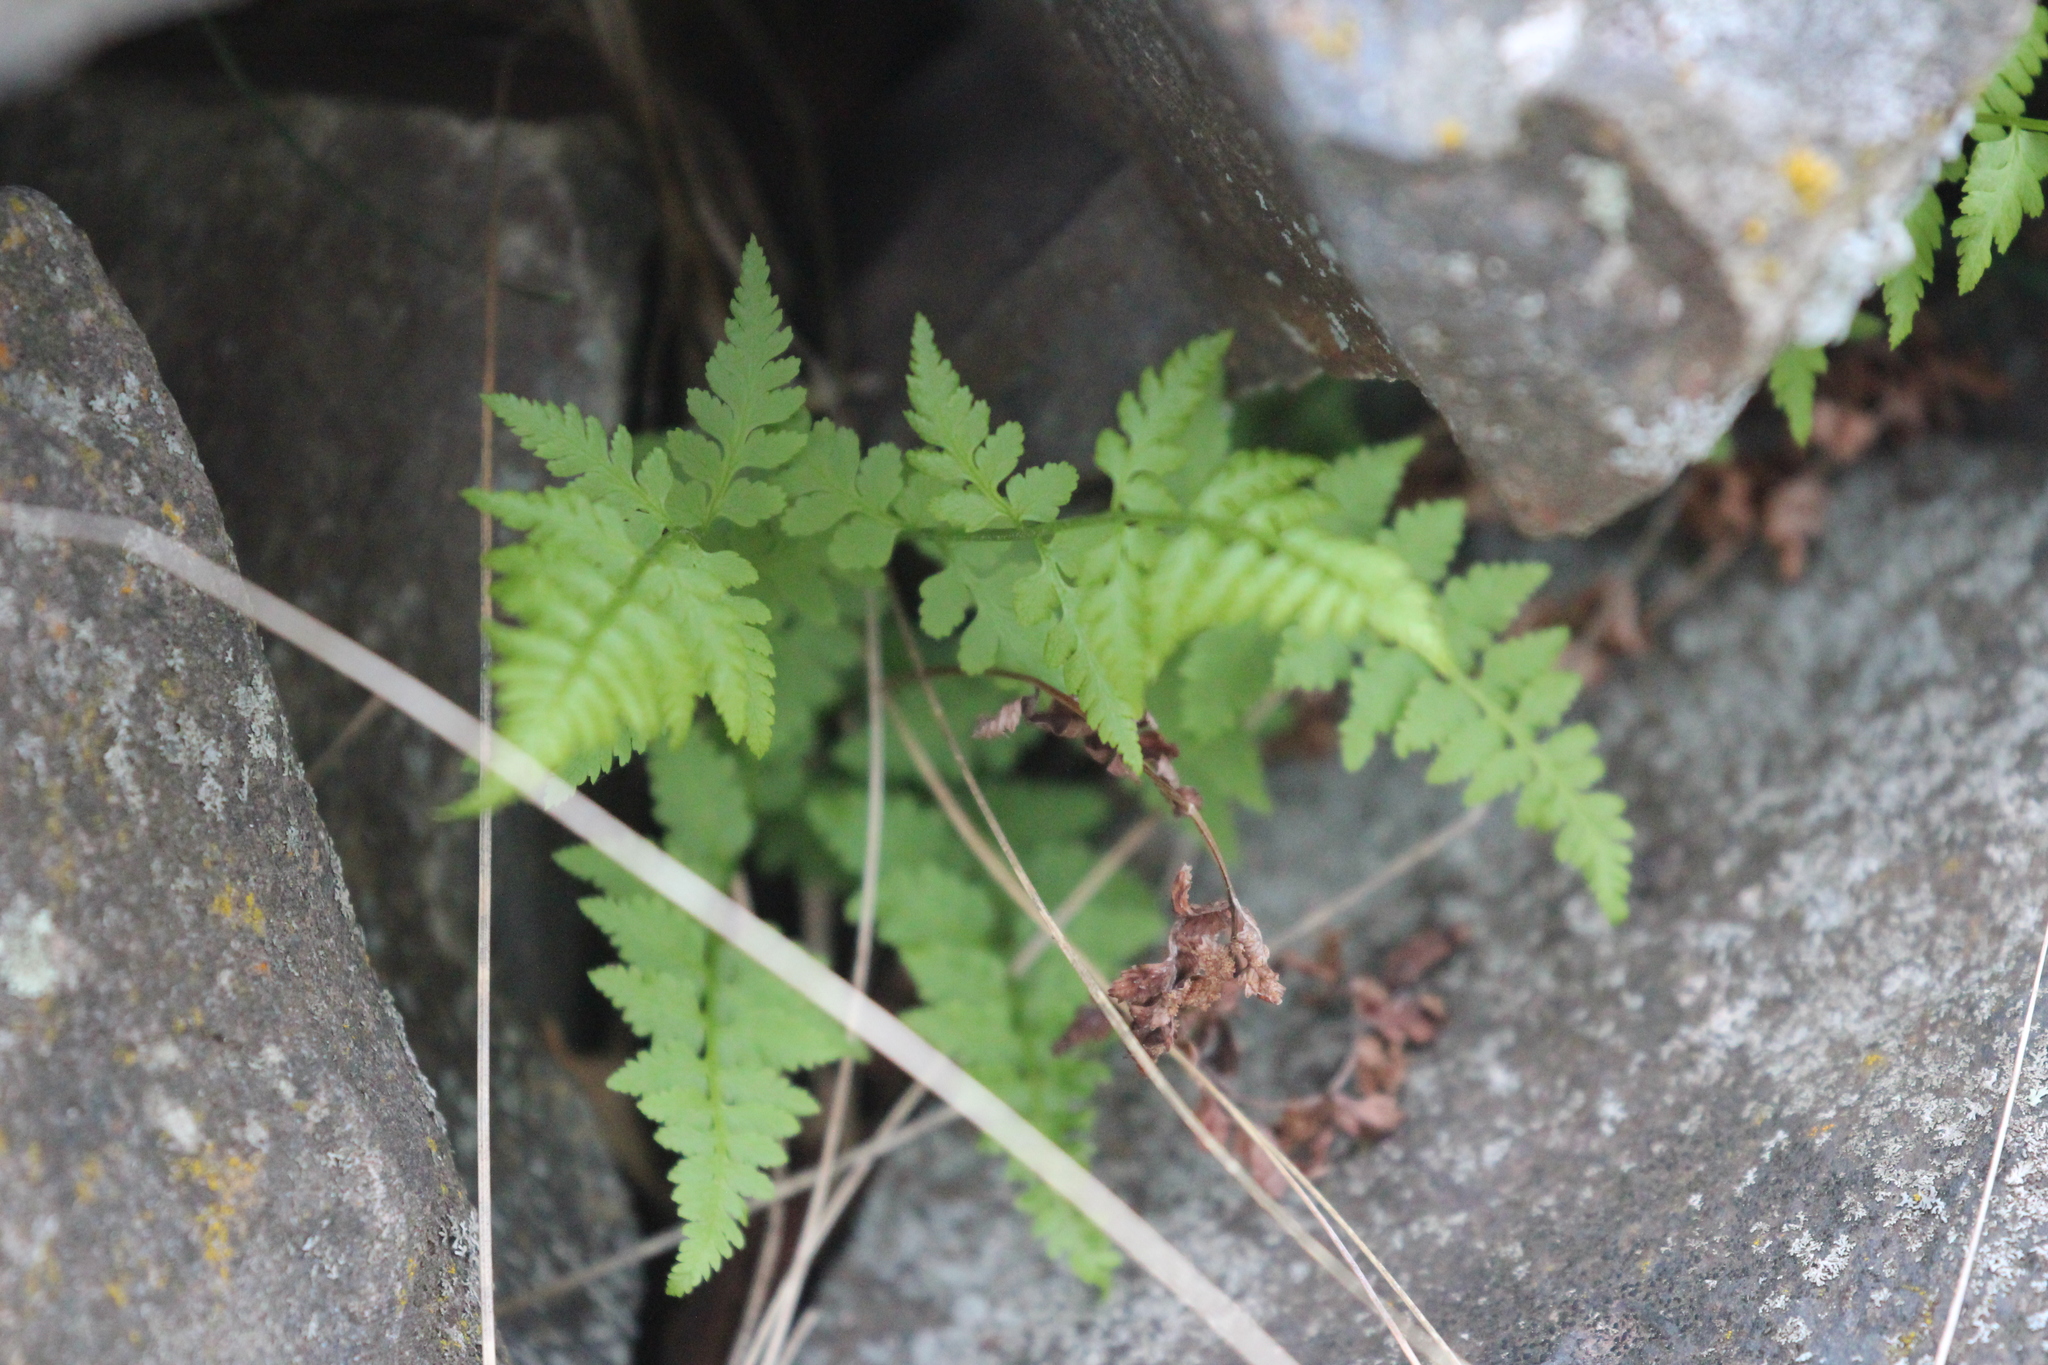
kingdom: Plantae
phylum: Tracheophyta
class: Polypodiopsida
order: Polypodiales
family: Cystopteridaceae
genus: Cystopteris
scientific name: Cystopteris fragilis
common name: Brittle bladder fern
